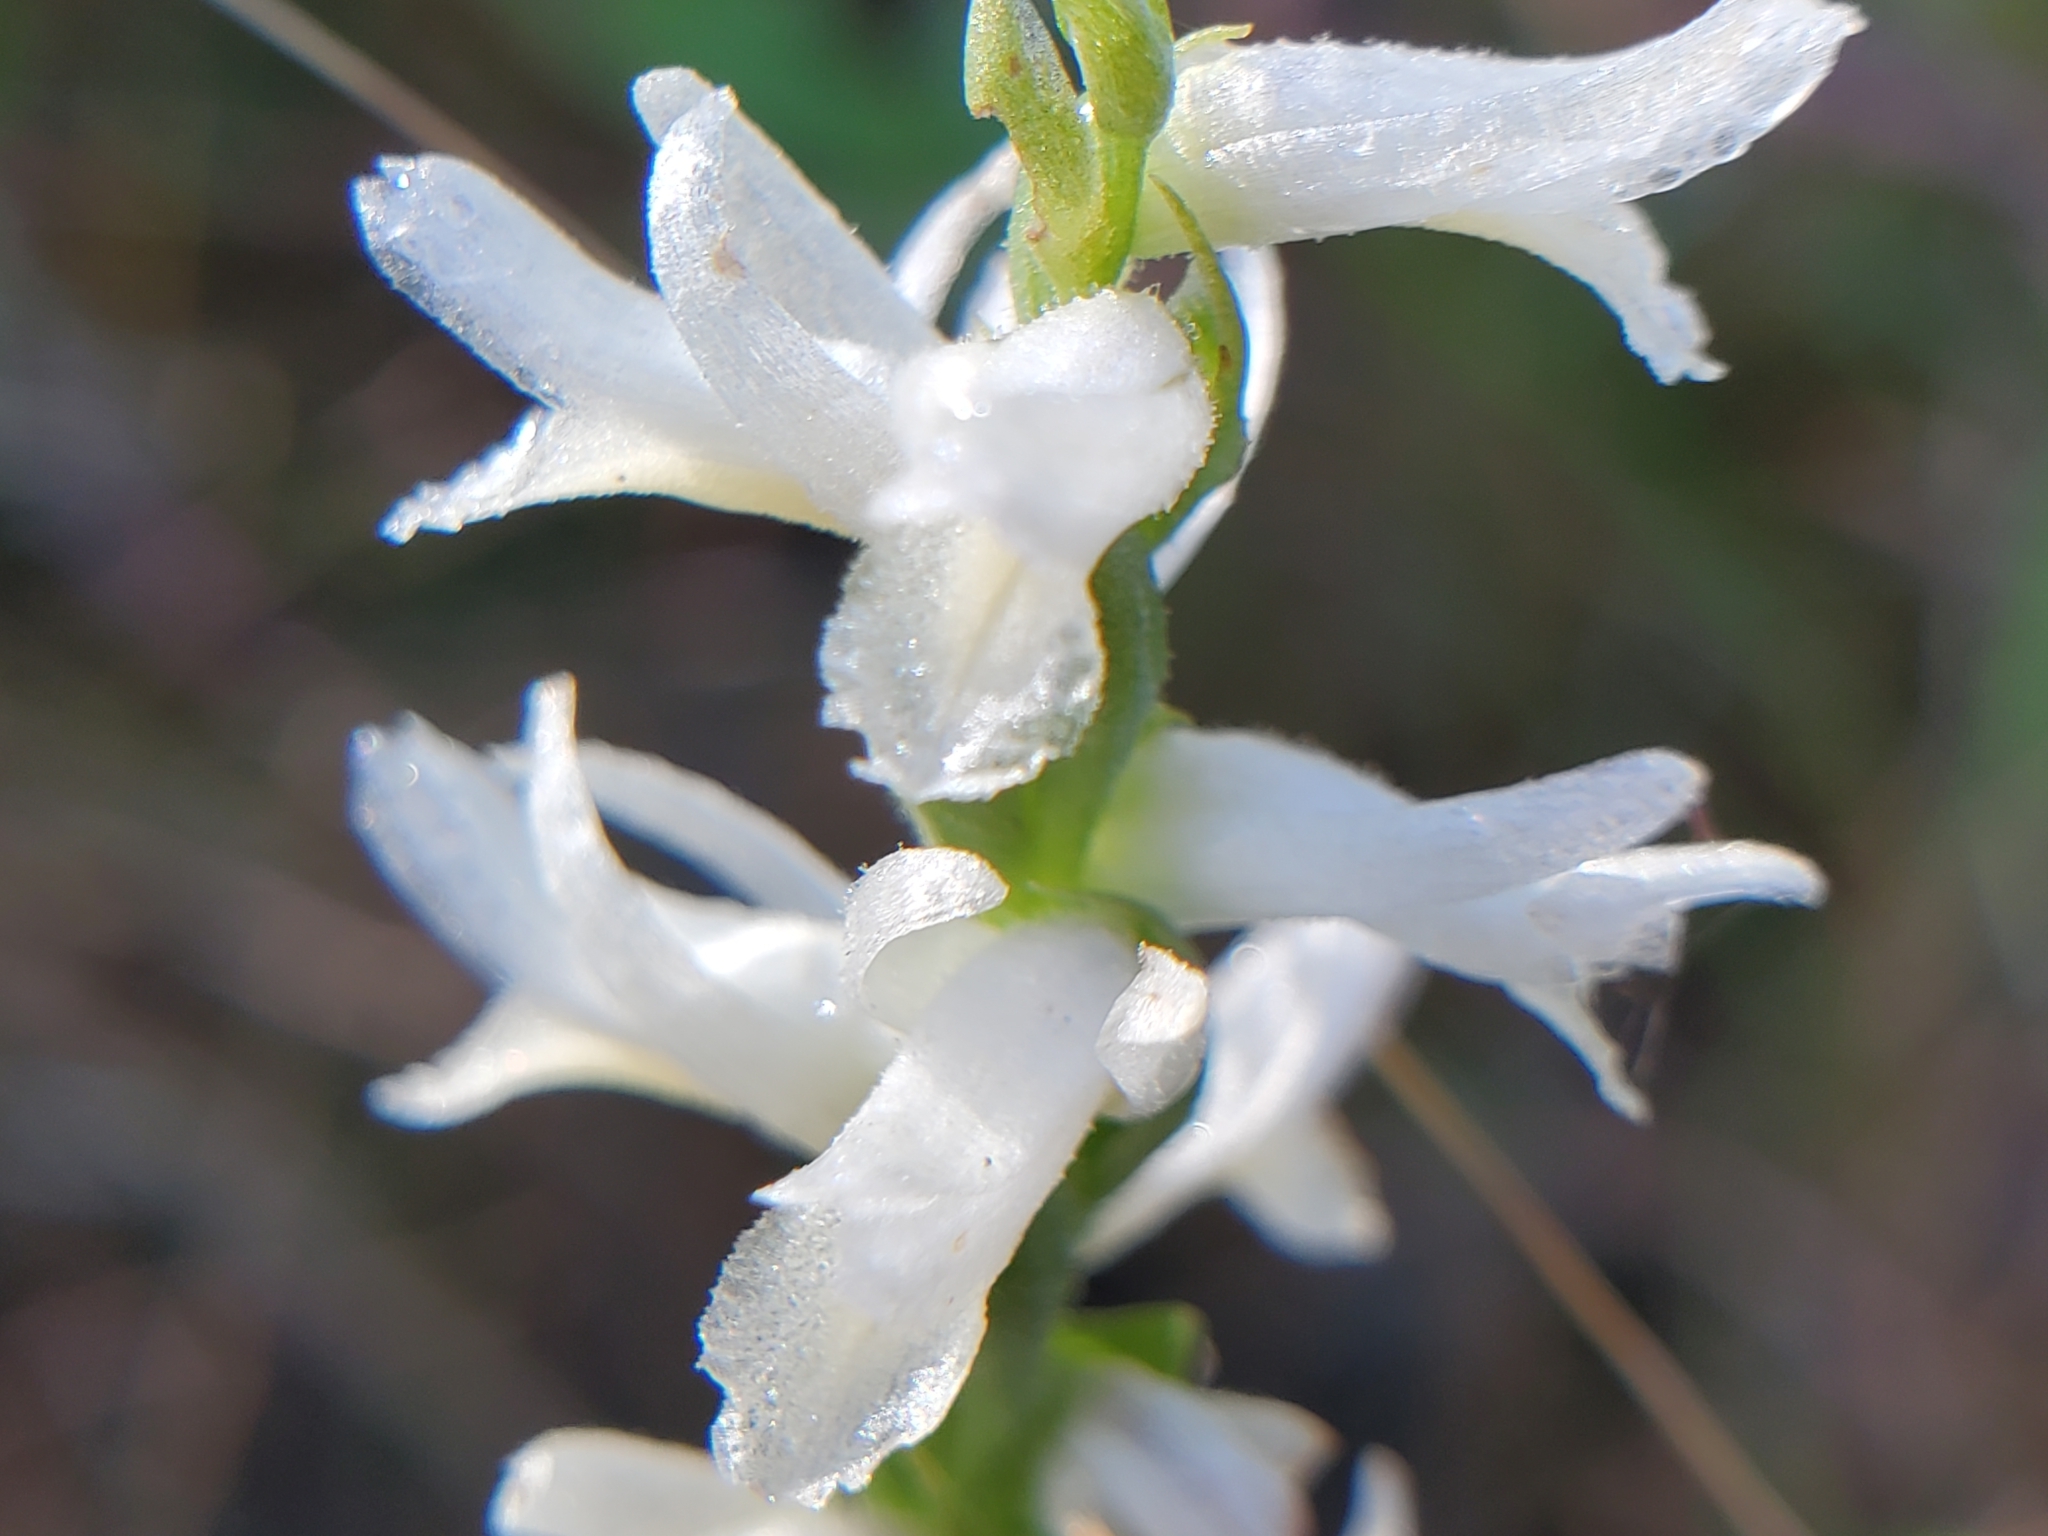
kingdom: Plantae
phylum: Tracheophyta
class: Liliopsida
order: Asparagales
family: Orchidaceae
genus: Spiranthes
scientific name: Spiranthes magnicamporum
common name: Great plains ladies'-tresses
